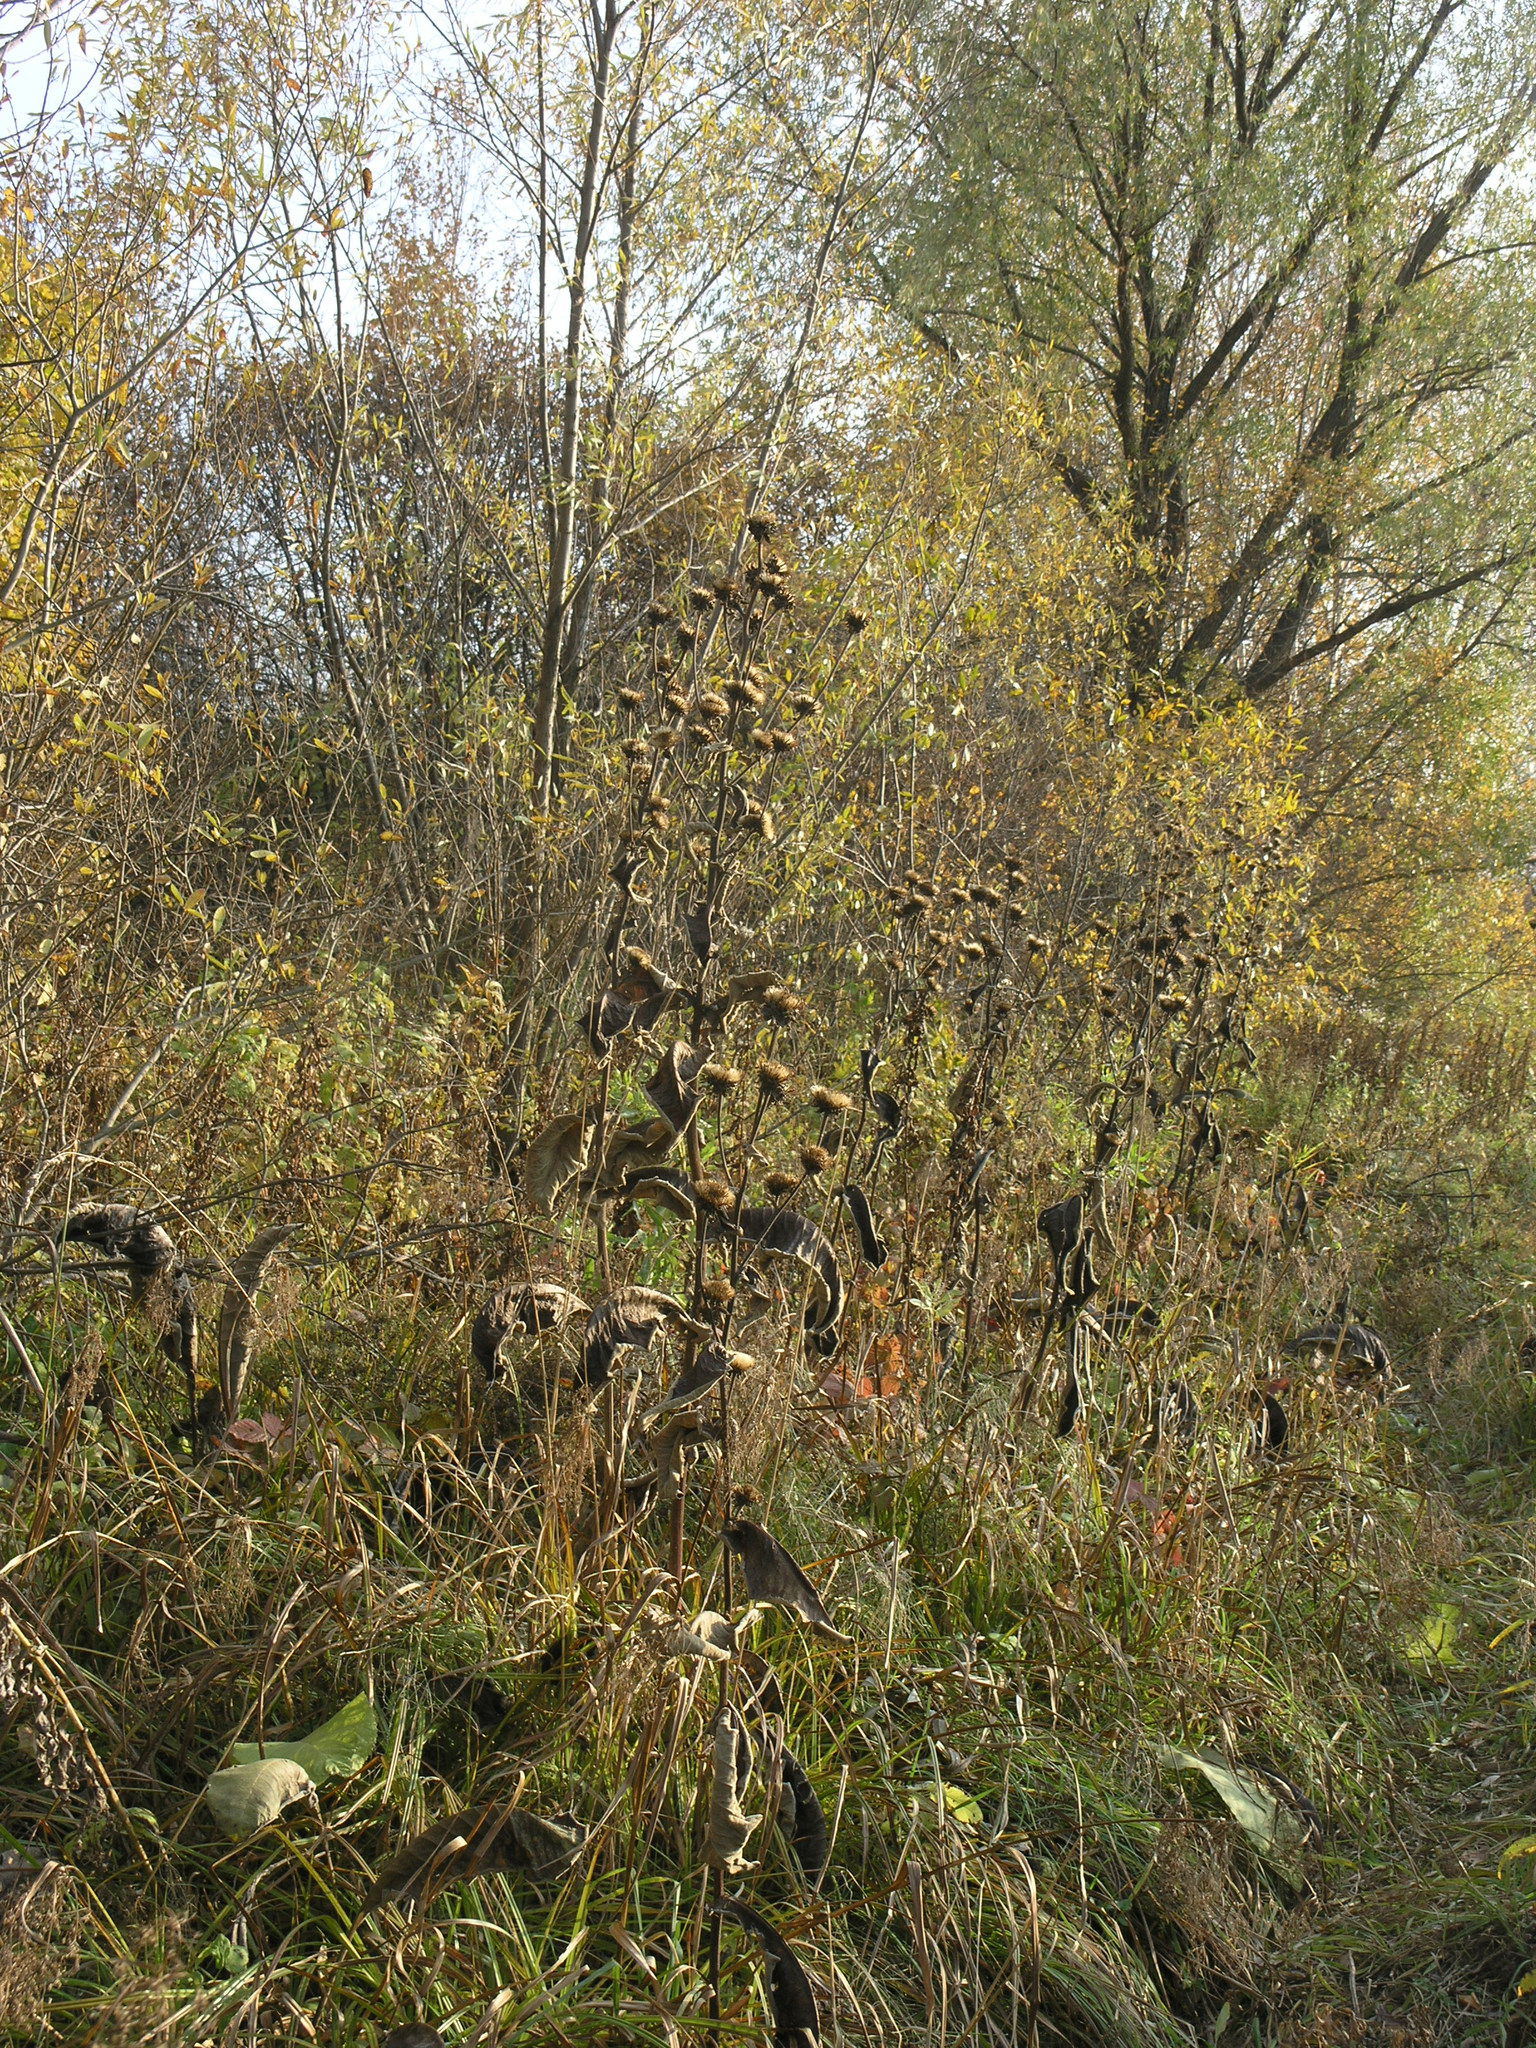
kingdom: Plantae
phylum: Tracheophyta
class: Magnoliopsida
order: Asterales
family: Asteraceae
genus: Inula
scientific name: Inula helenium
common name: Elecampane
